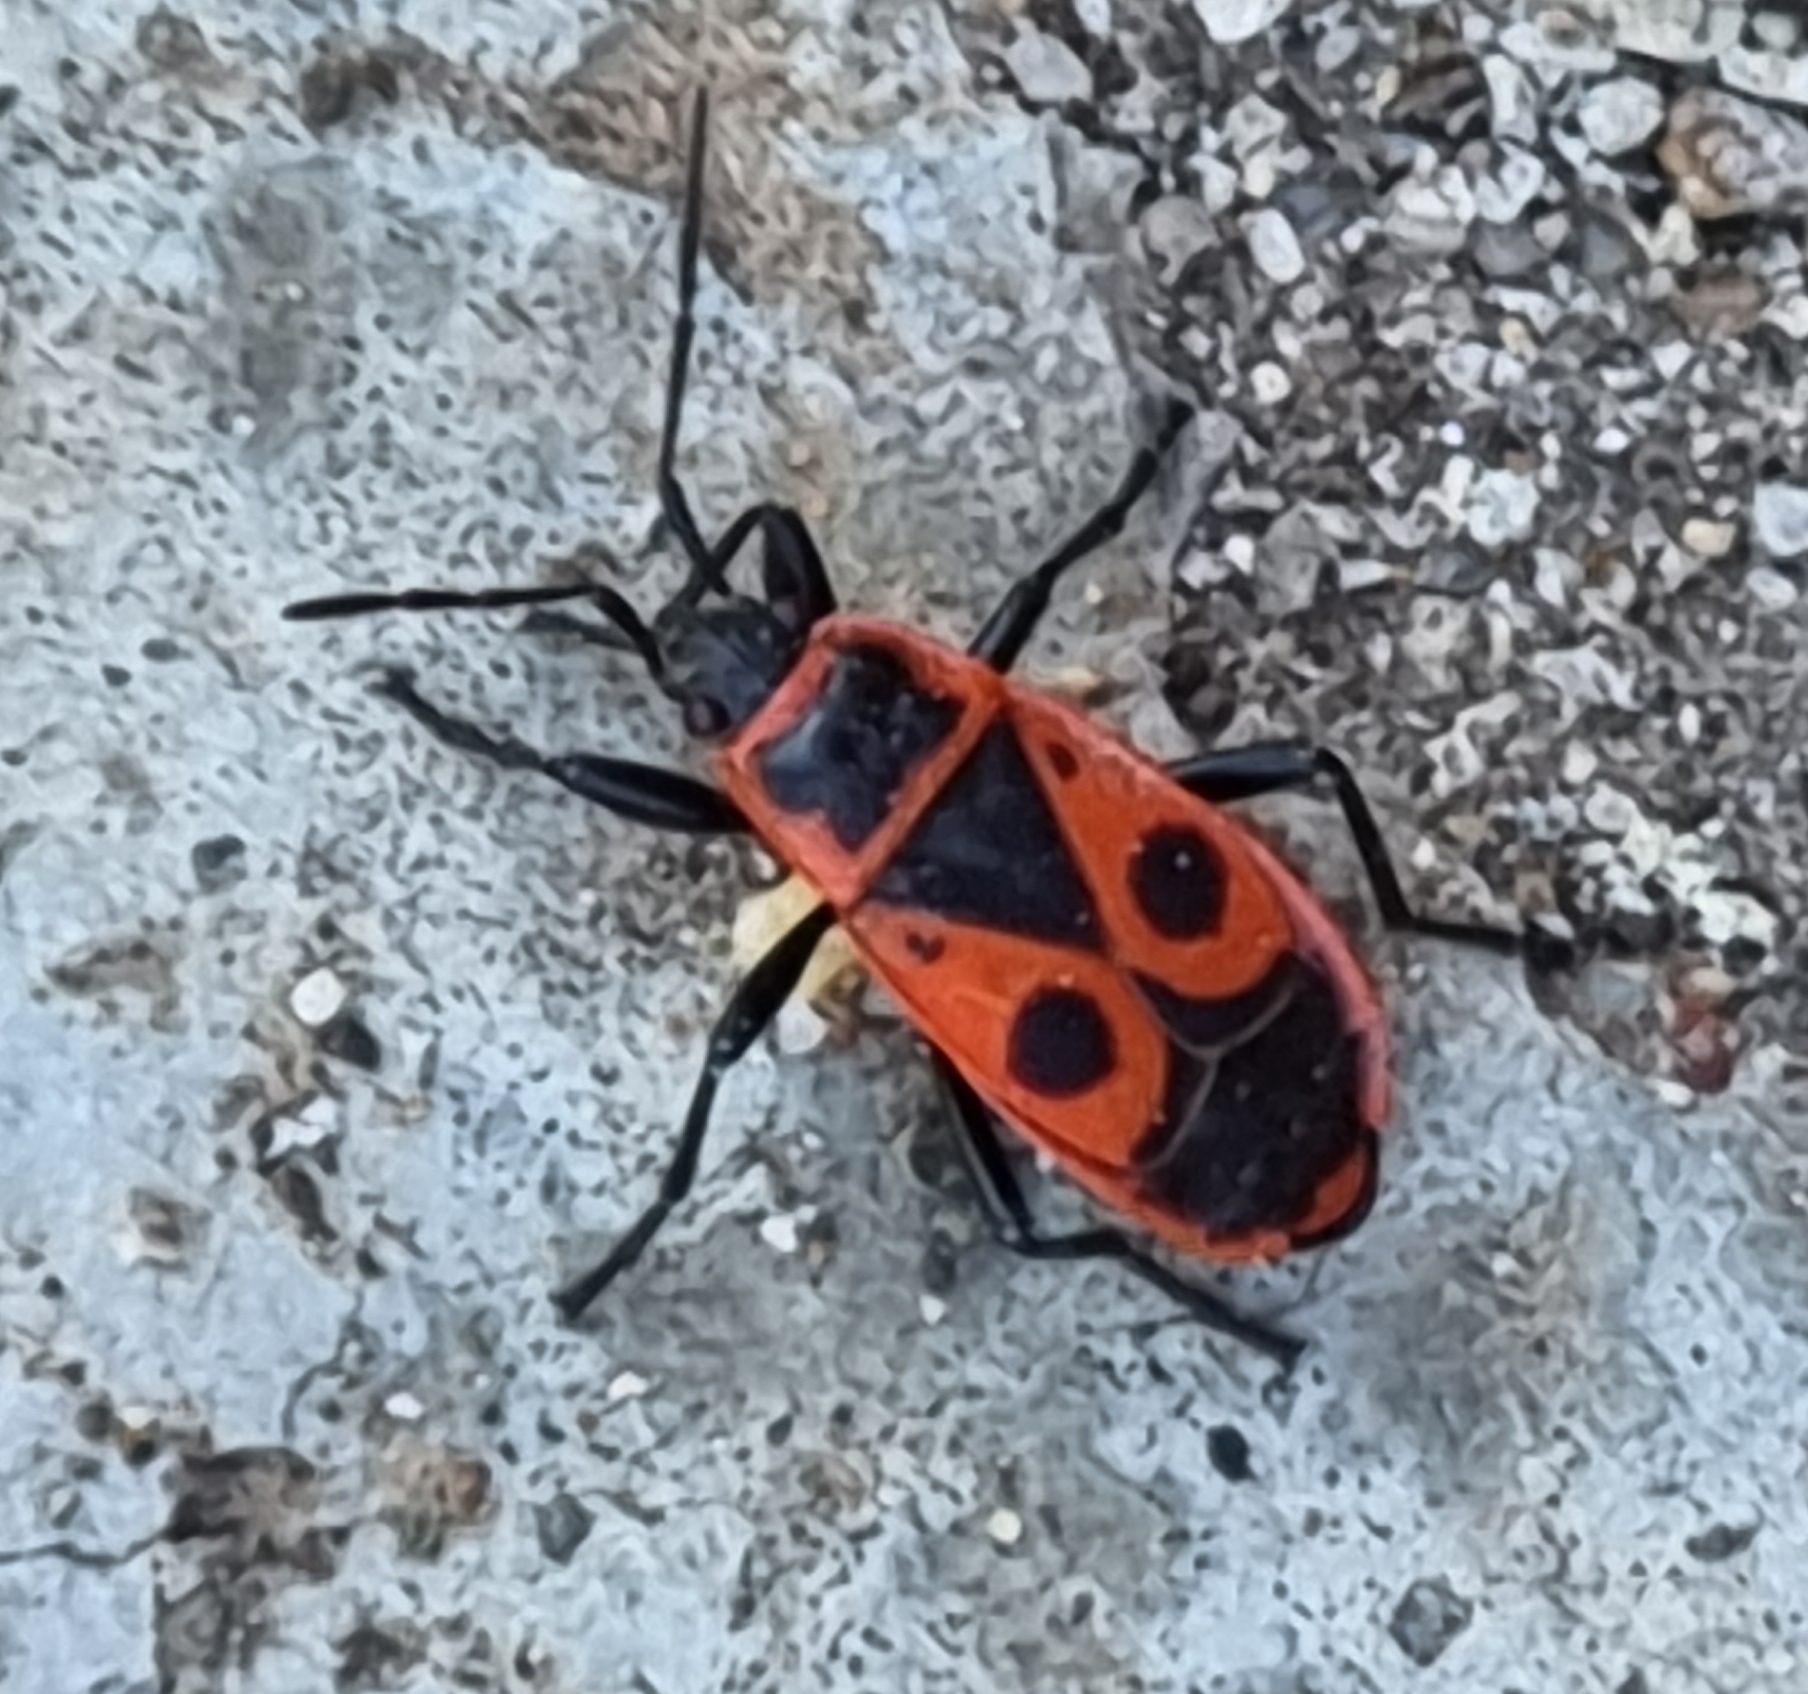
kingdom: Animalia
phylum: Arthropoda
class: Insecta
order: Hemiptera
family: Pyrrhocoridae
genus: Pyrrhocoris
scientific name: Pyrrhocoris apterus
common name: Firebug
